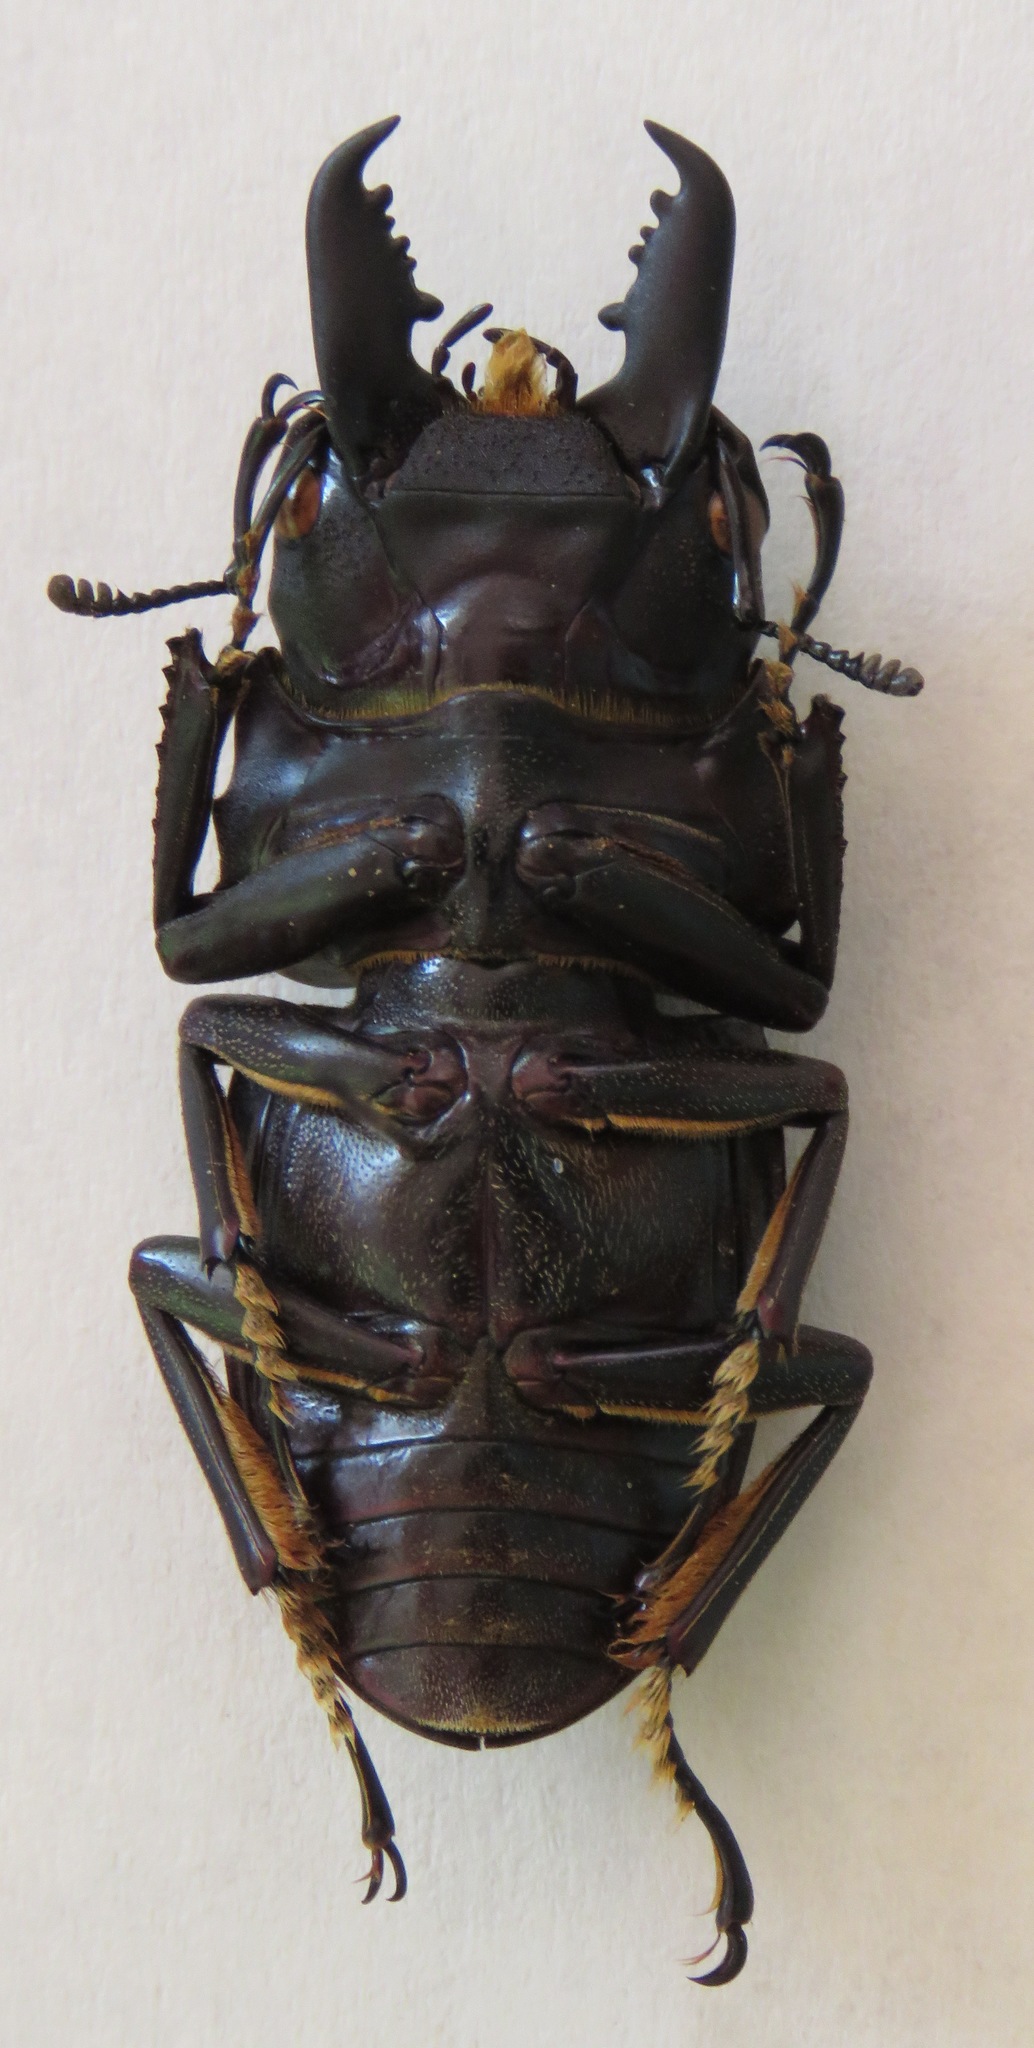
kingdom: Animalia
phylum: Arthropoda
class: Insecta
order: Coleoptera
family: Lucanidae
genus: Dorcus
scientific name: Dorcus townesi
